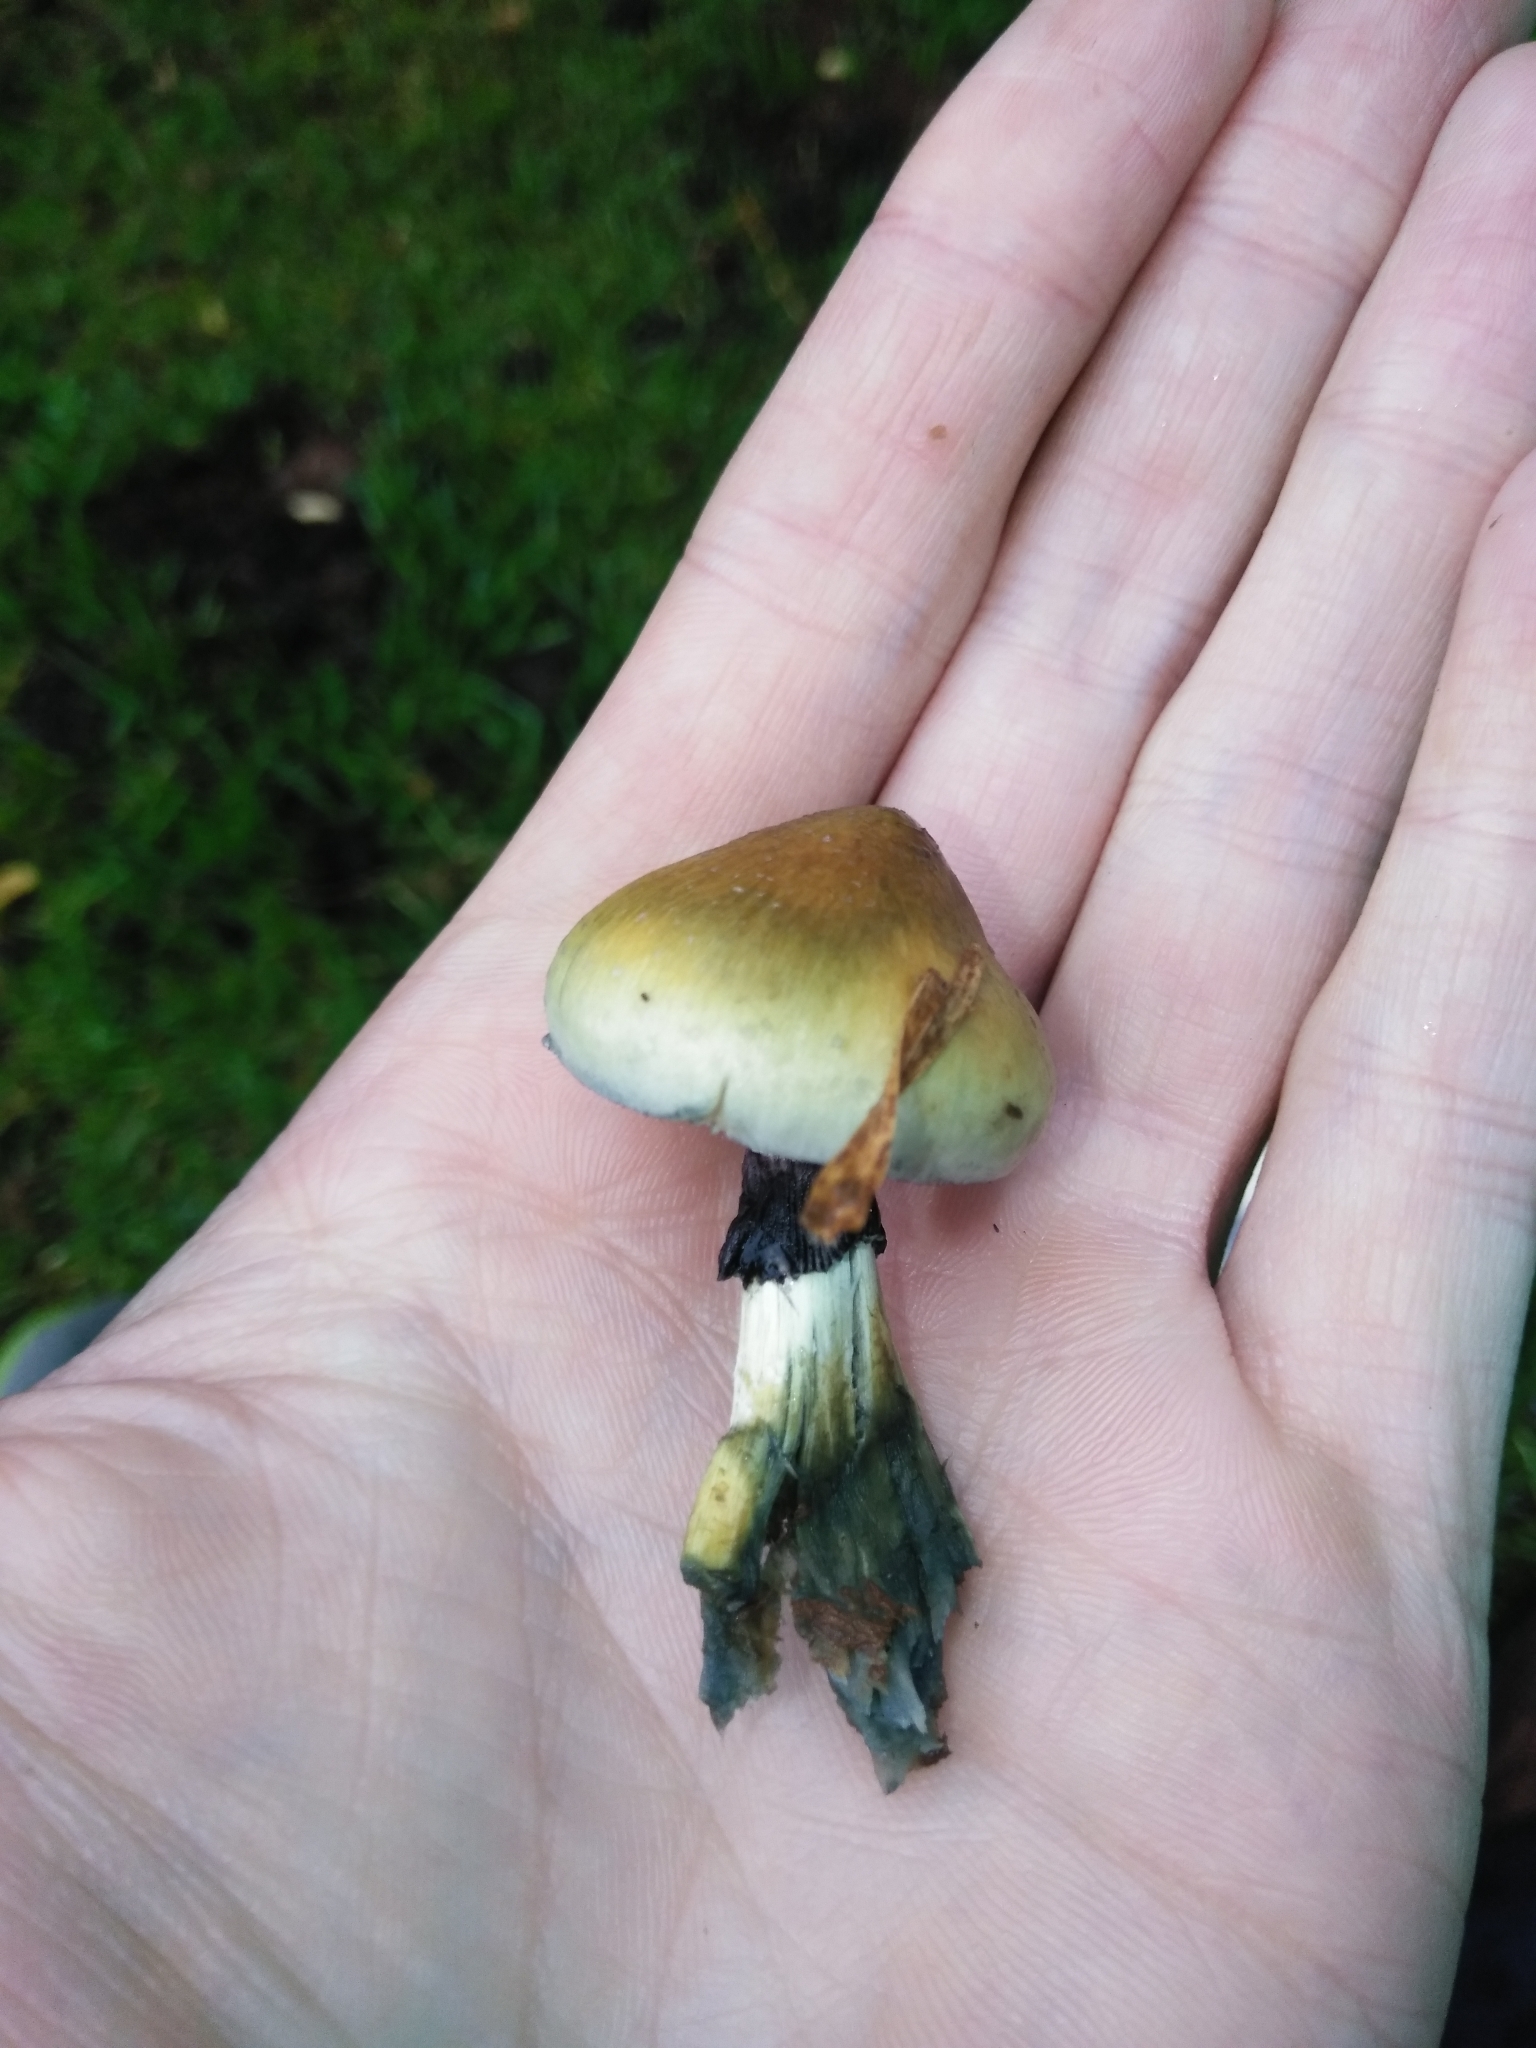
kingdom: Fungi
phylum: Basidiomycota
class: Agaricomycetes
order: Agaricales
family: Hymenogastraceae
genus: Psilocybe
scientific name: Psilocybe cubensis
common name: Golden brownie
